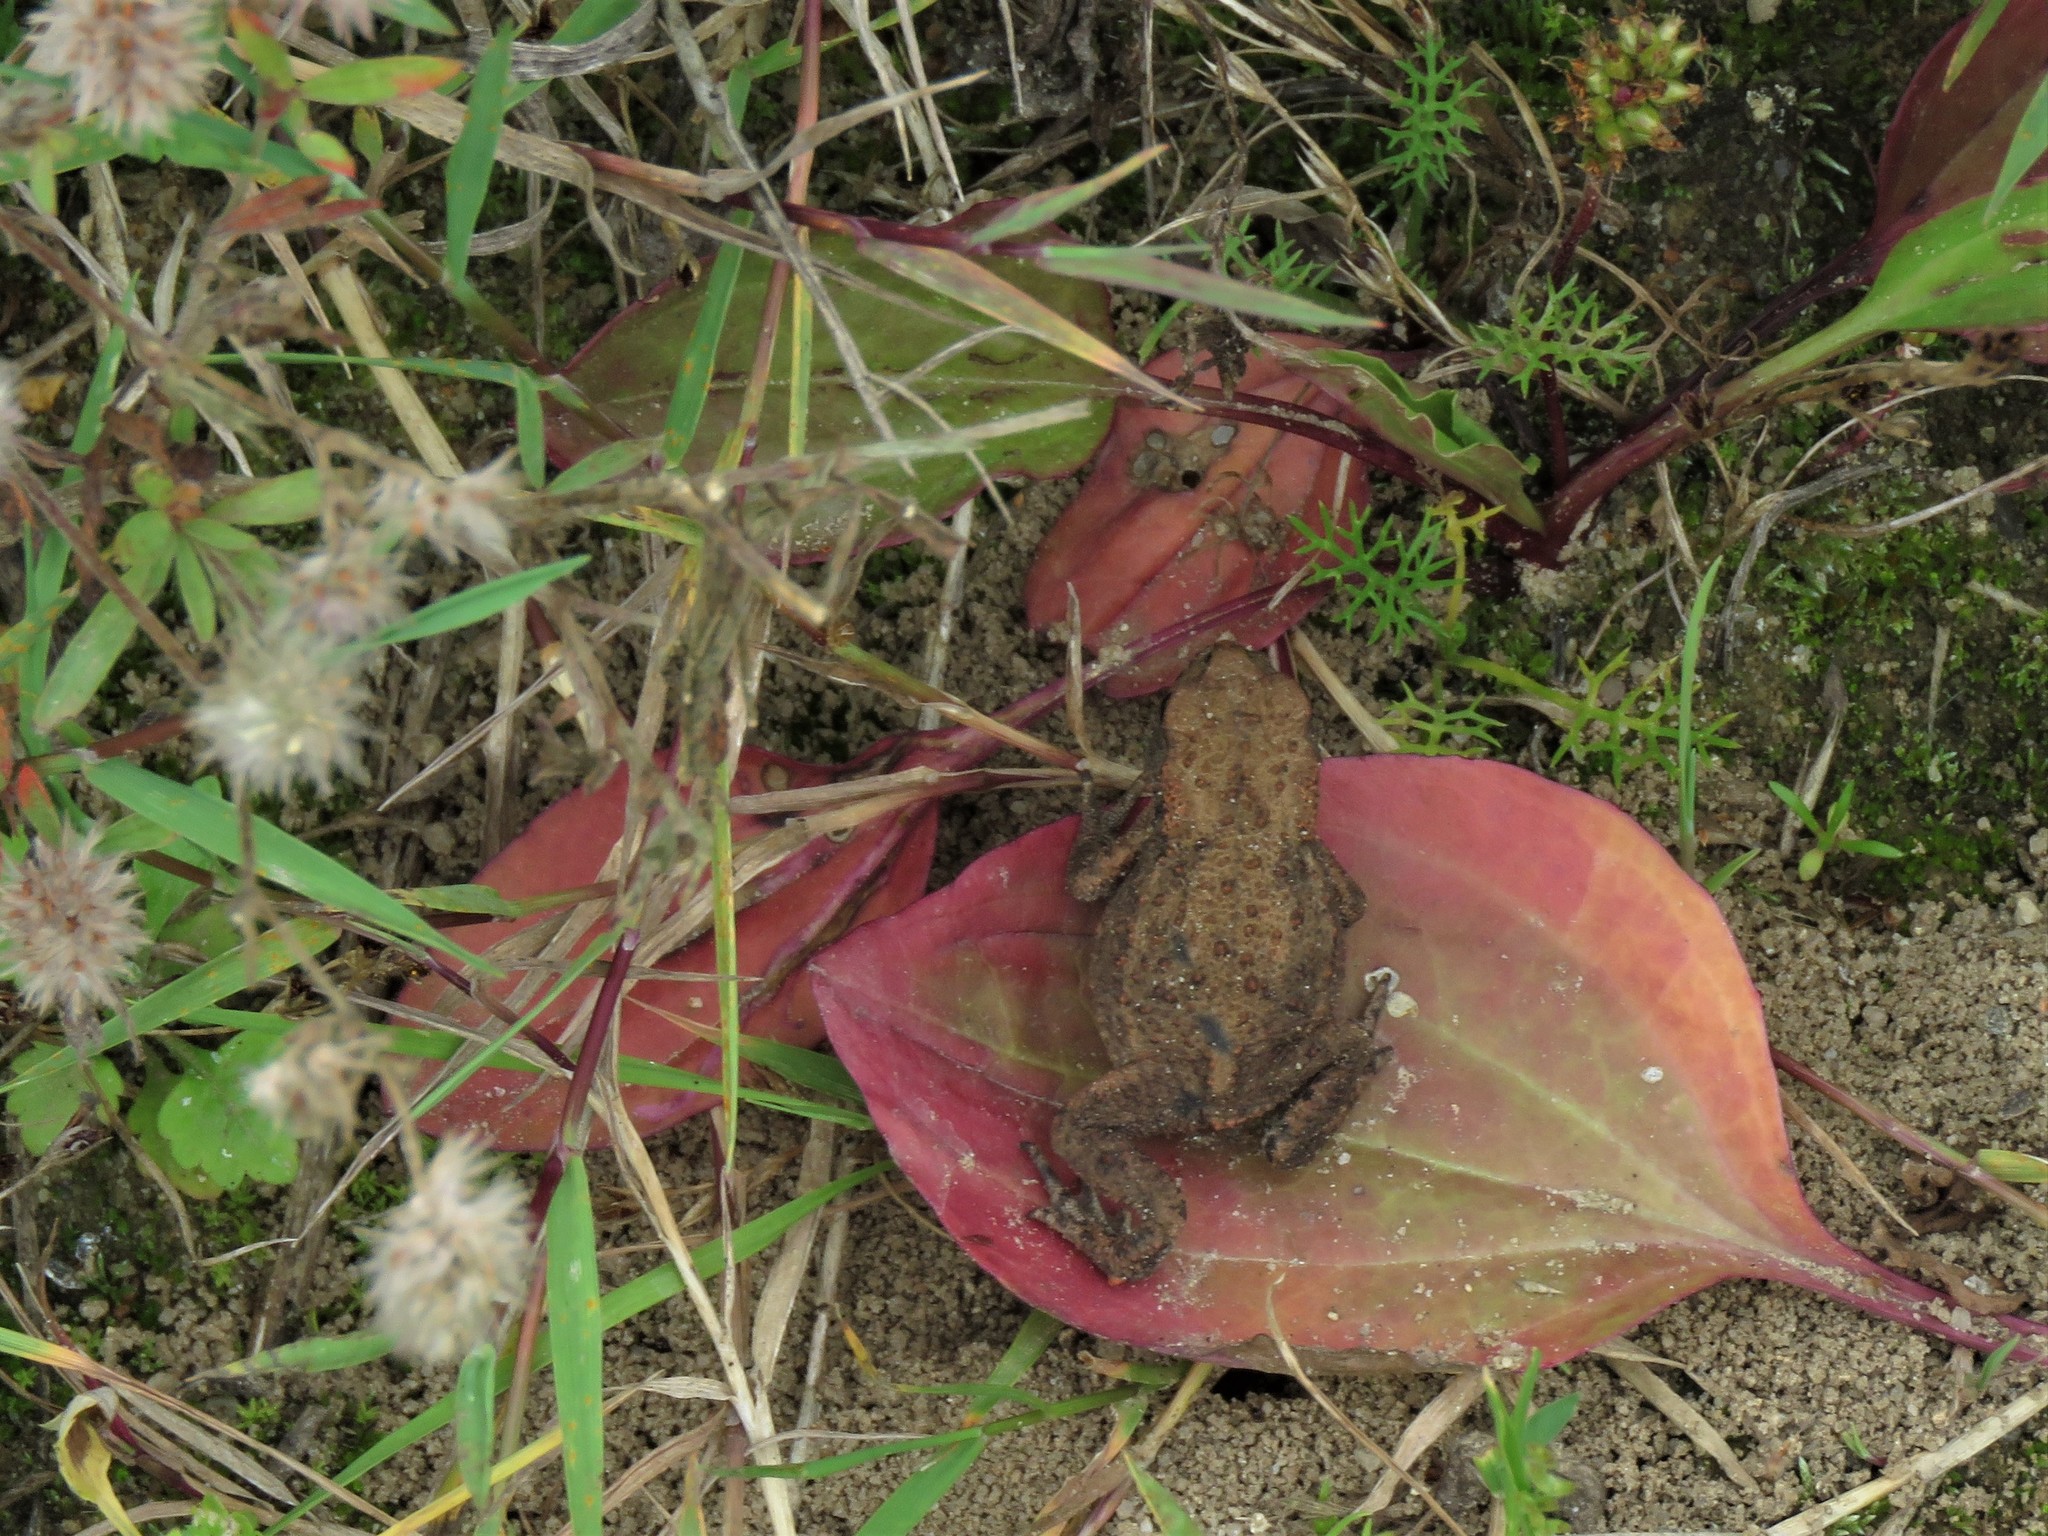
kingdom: Animalia
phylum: Chordata
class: Amphibia
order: Anura
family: Bufonidae
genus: Bufo
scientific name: Bufo bufo
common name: Common toad
